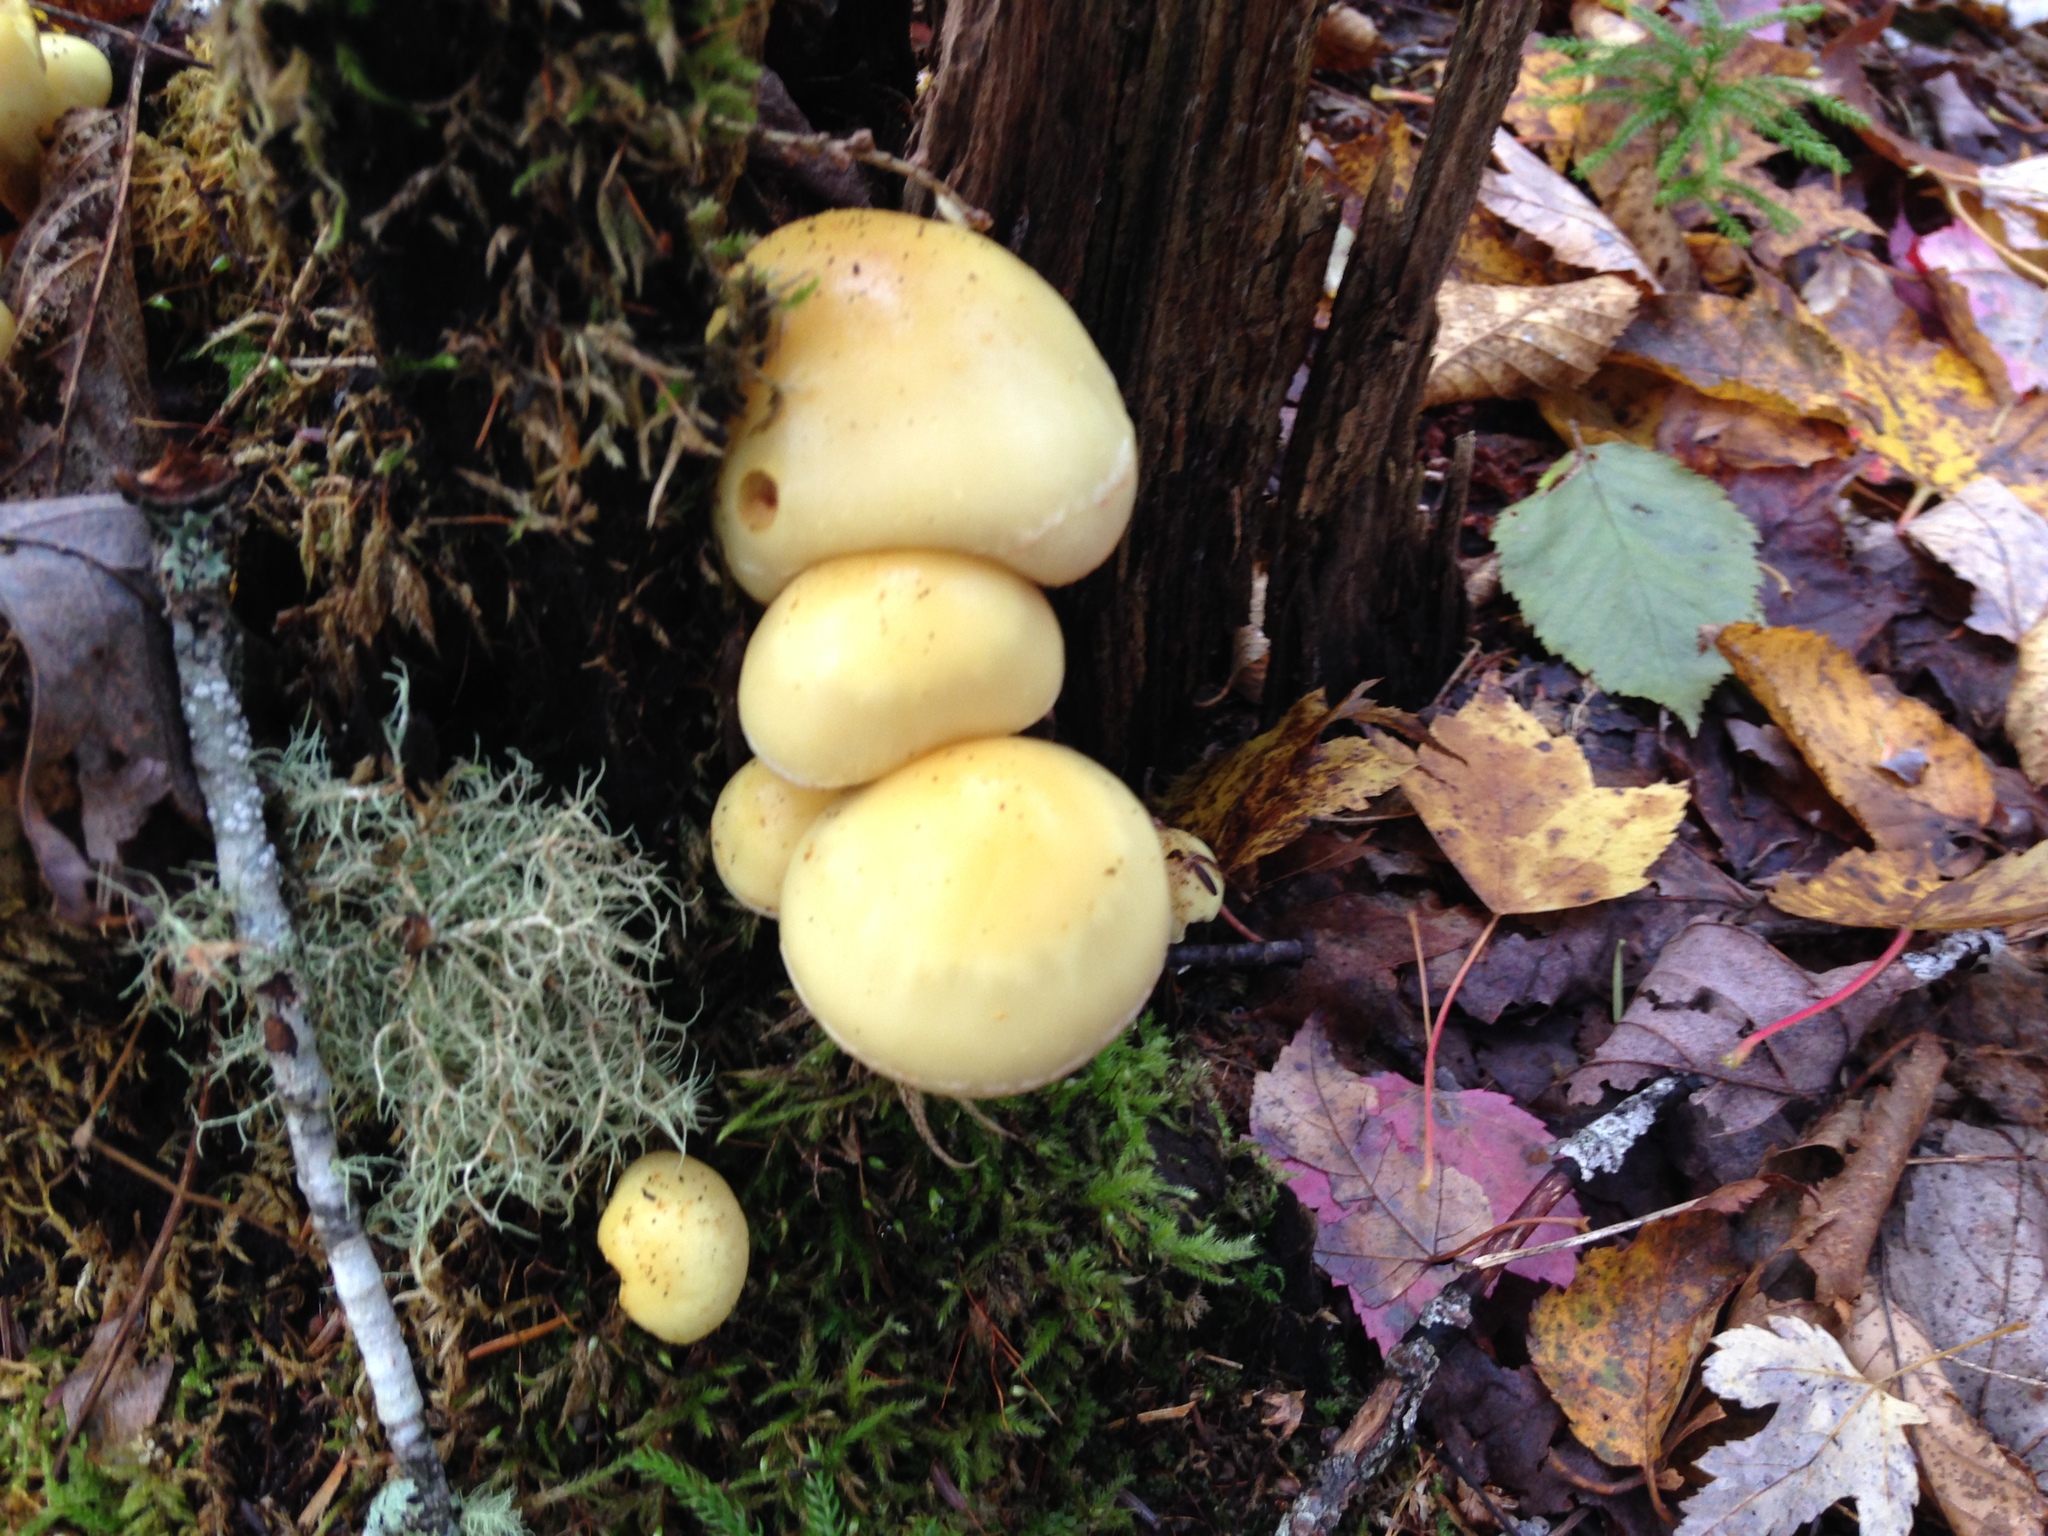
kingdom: Fungi
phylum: Basidiomycota
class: Agaricomycetes
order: Agaricales
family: Strophariaceae
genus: Hypholoma
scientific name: Hypholoma fasciculare
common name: Sulphur tuft
